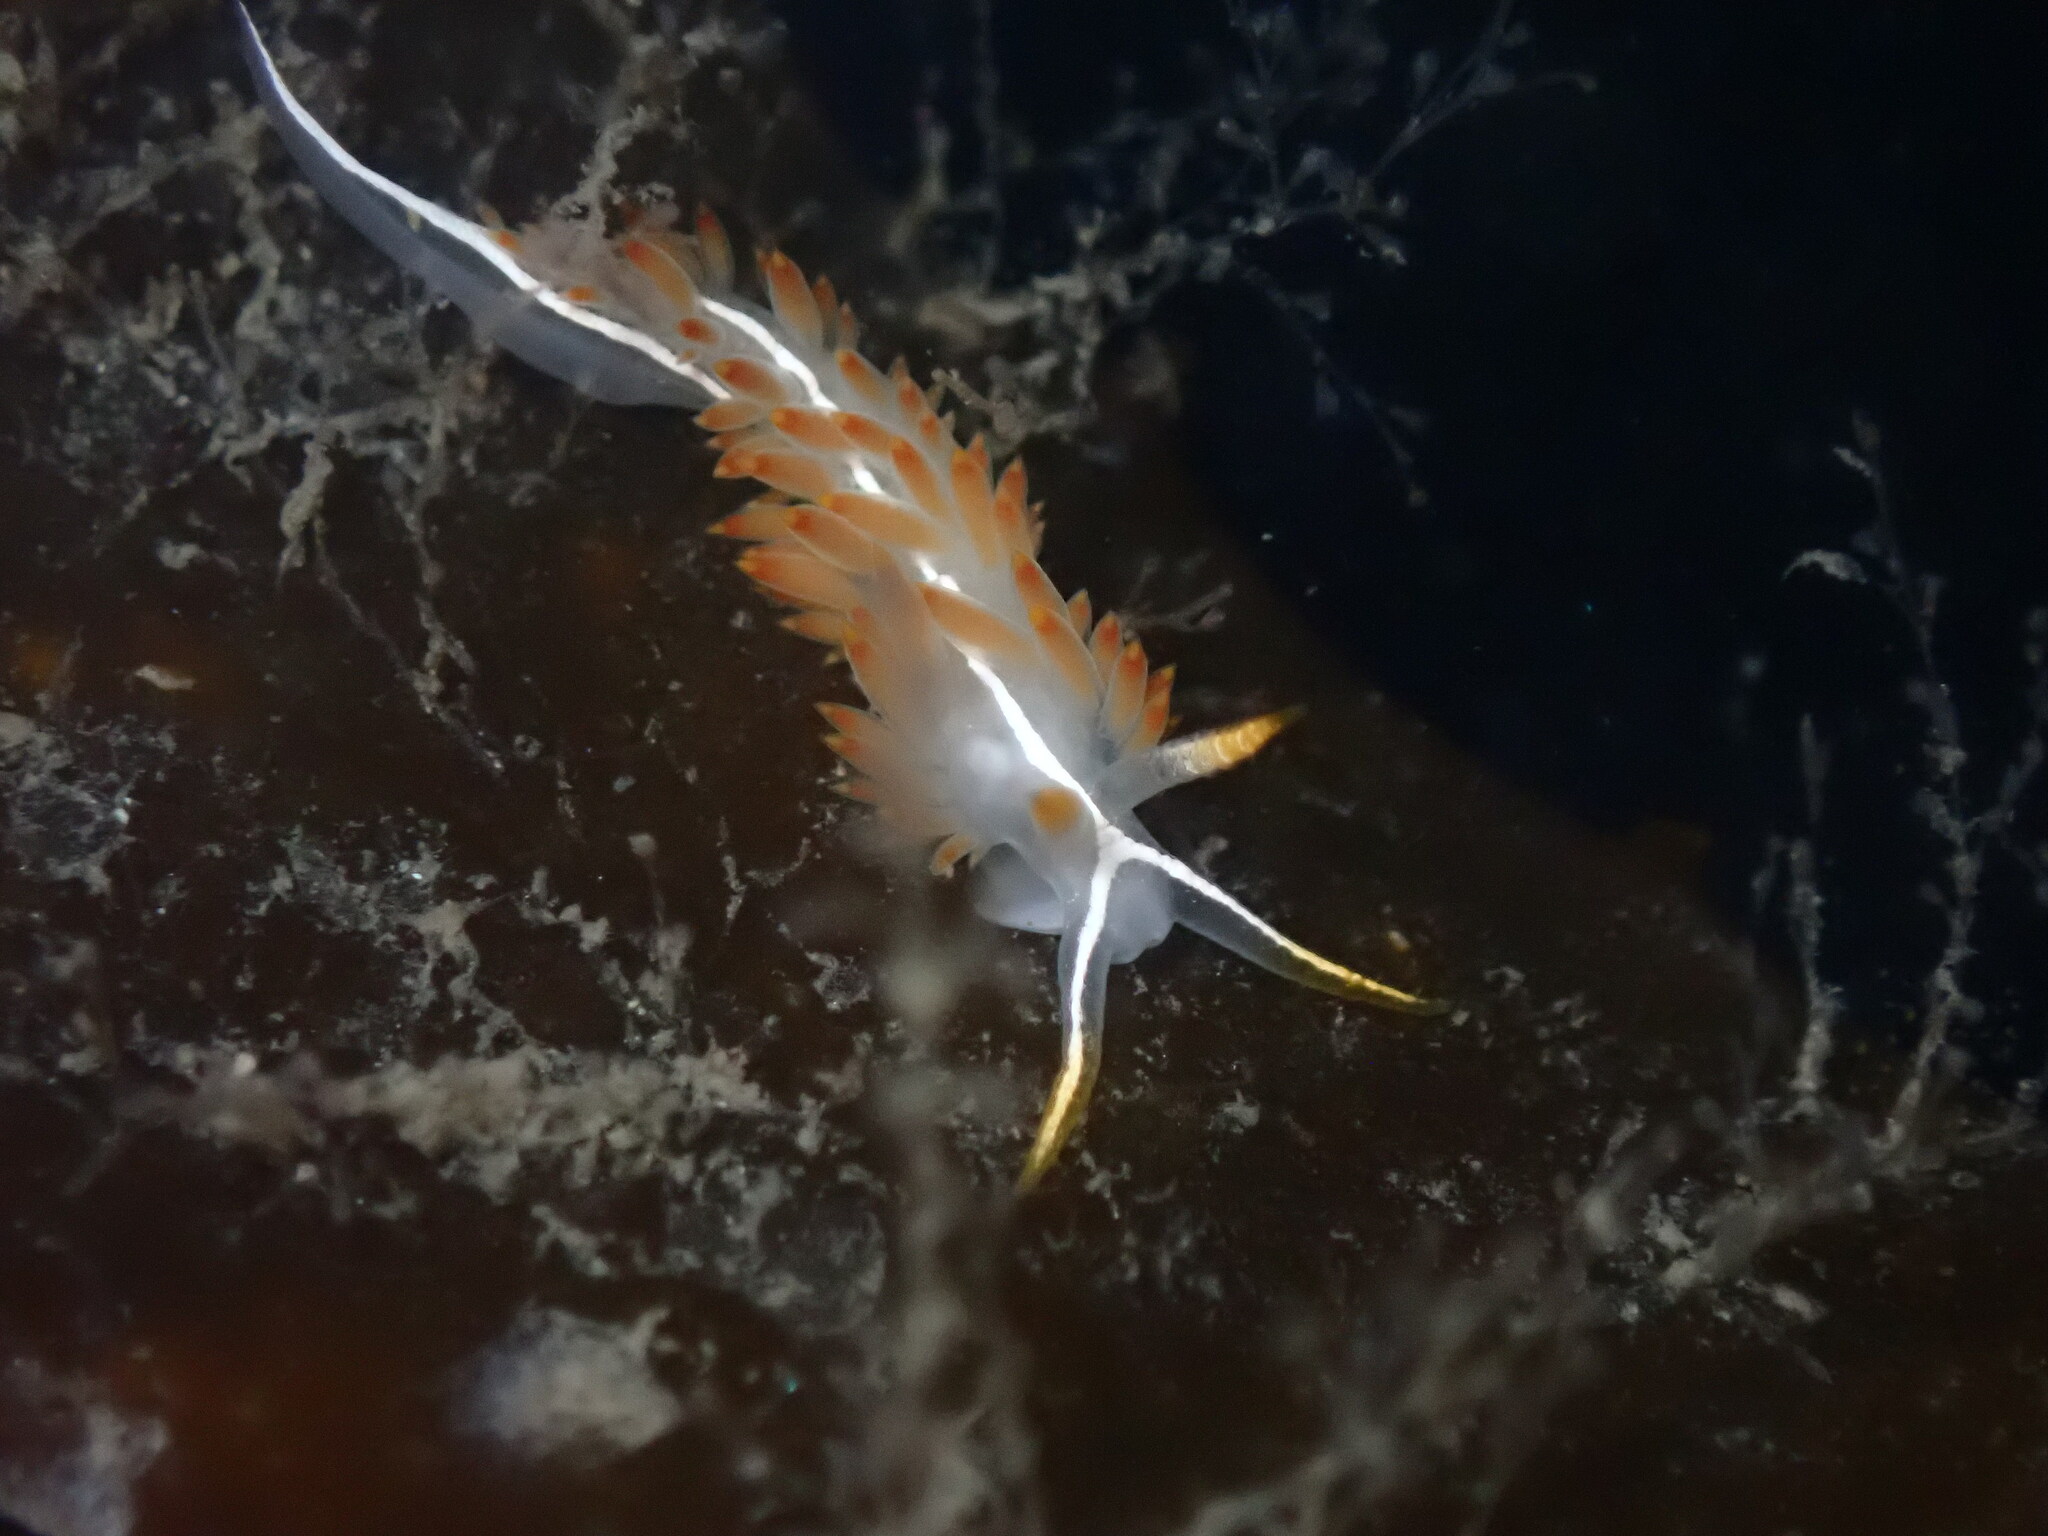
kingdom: Animalia
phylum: Mollusca
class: Gastropoda
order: Nudibranchia
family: Coryphellidae
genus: Coryphella
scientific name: Coryphella trilineata
